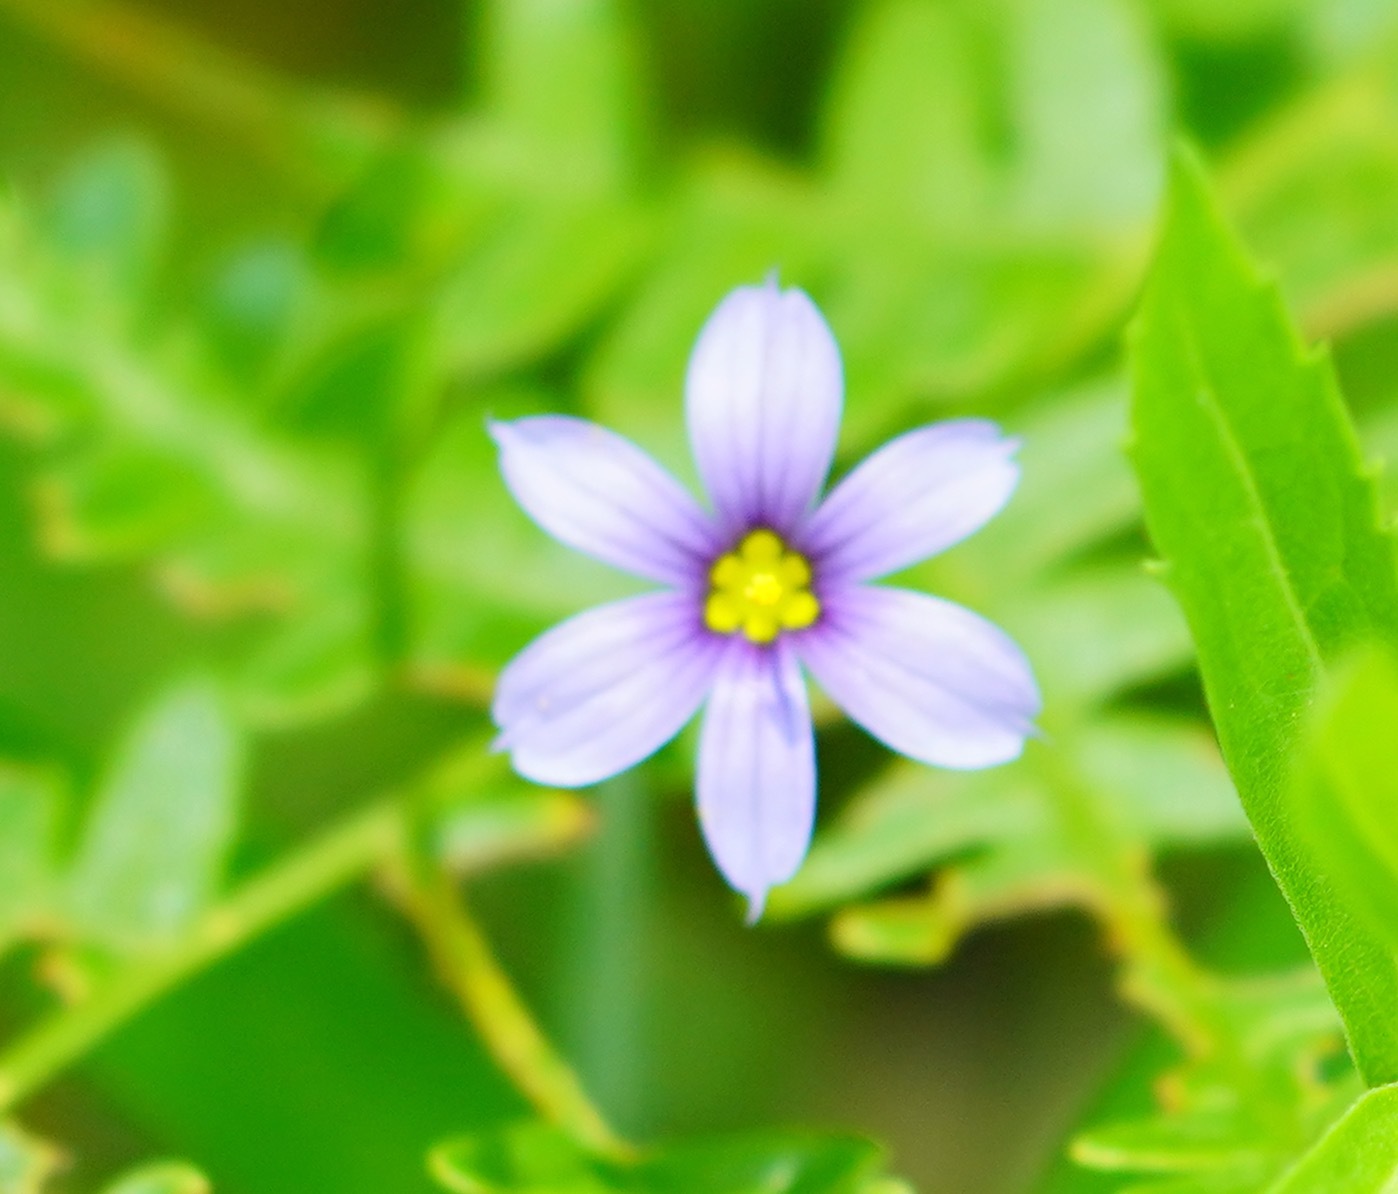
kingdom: Plantae
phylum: Tracheophyta
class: Liliopsida
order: Asparagales
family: Iridaceae
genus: Sisyrinchium
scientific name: Sisyrinchium bellum
